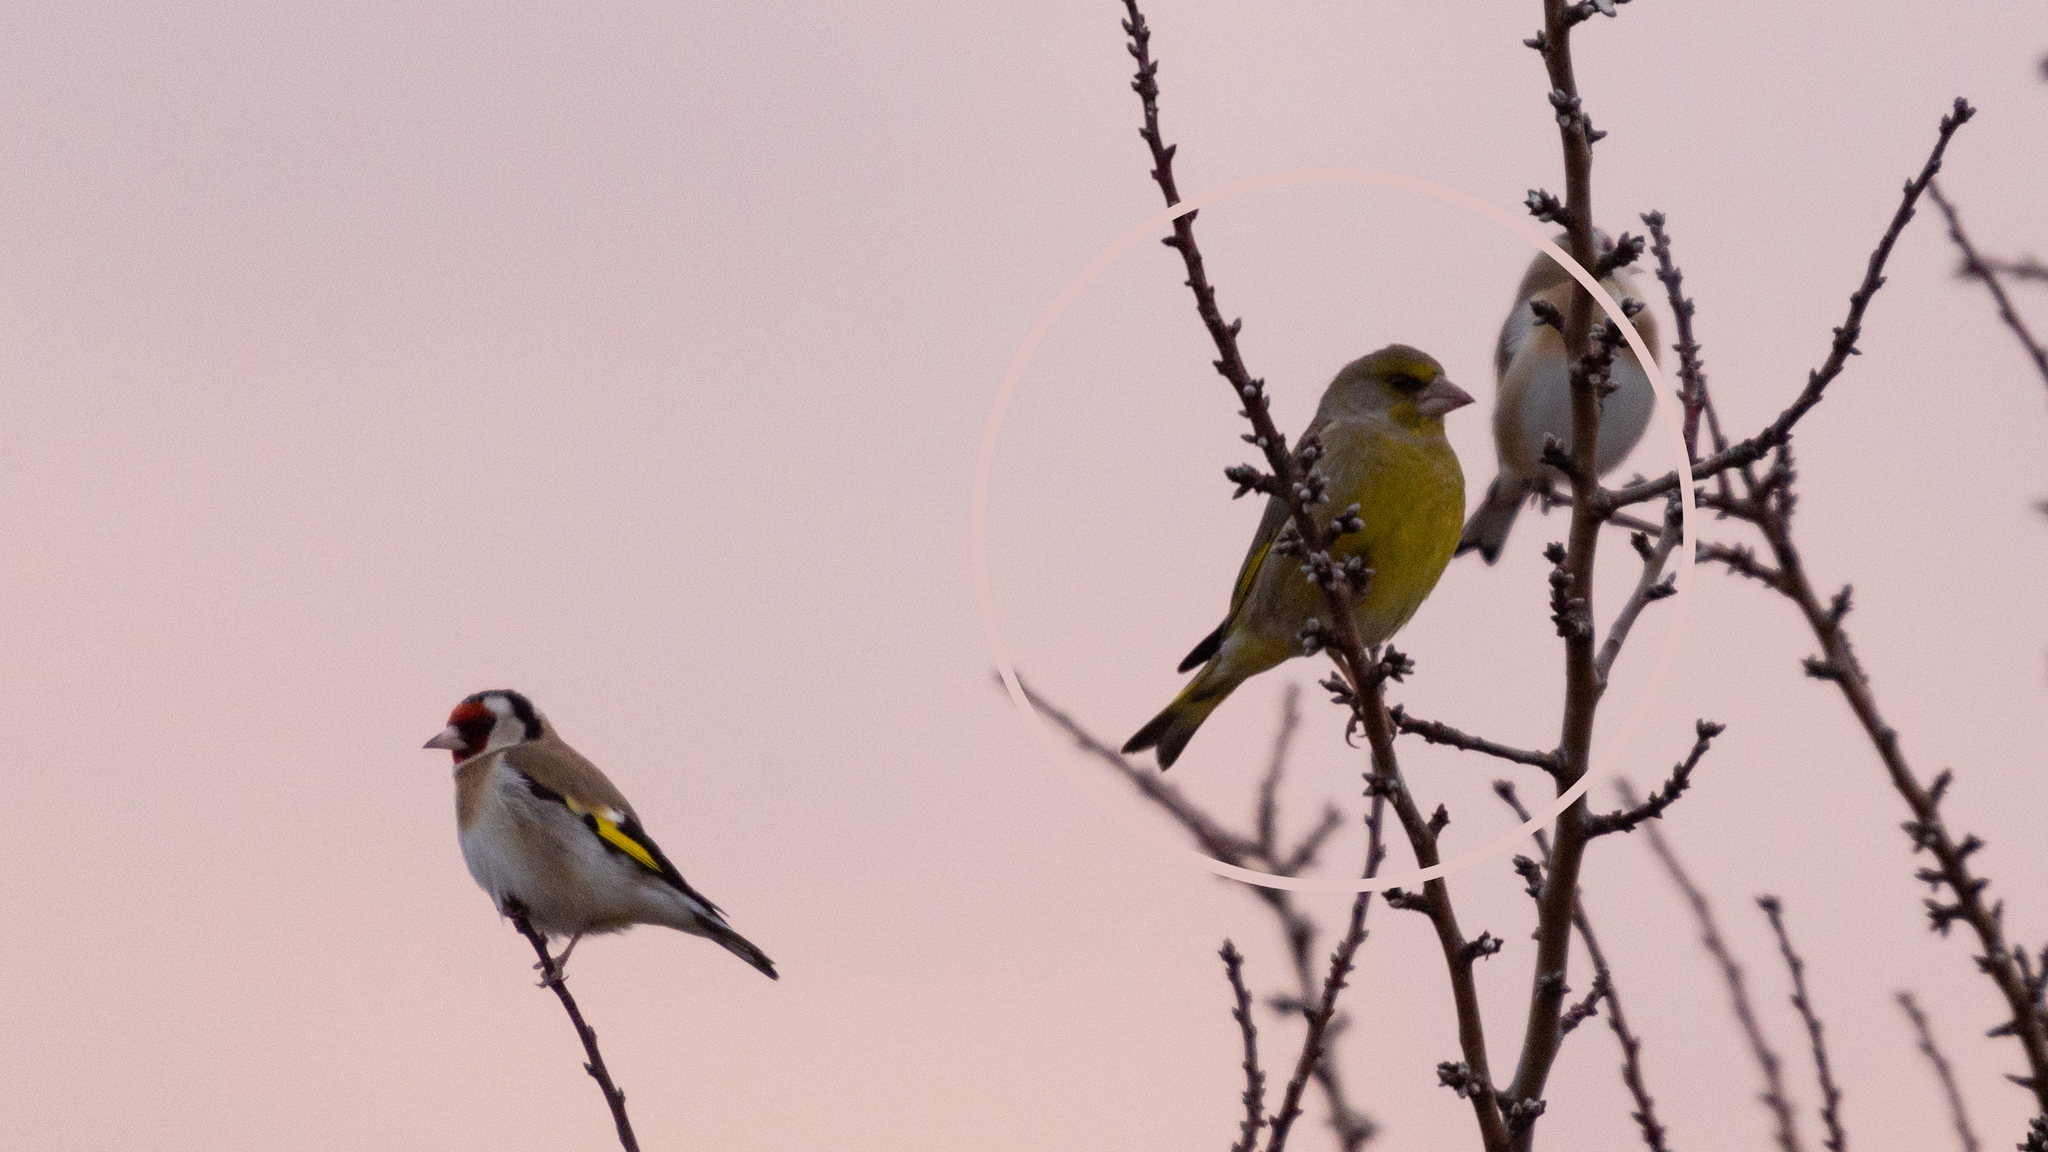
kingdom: Plantae
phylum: Tracheophyta
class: Liliopsida
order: Poales
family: Poaceae
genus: Chloris
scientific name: Chloris chloris
